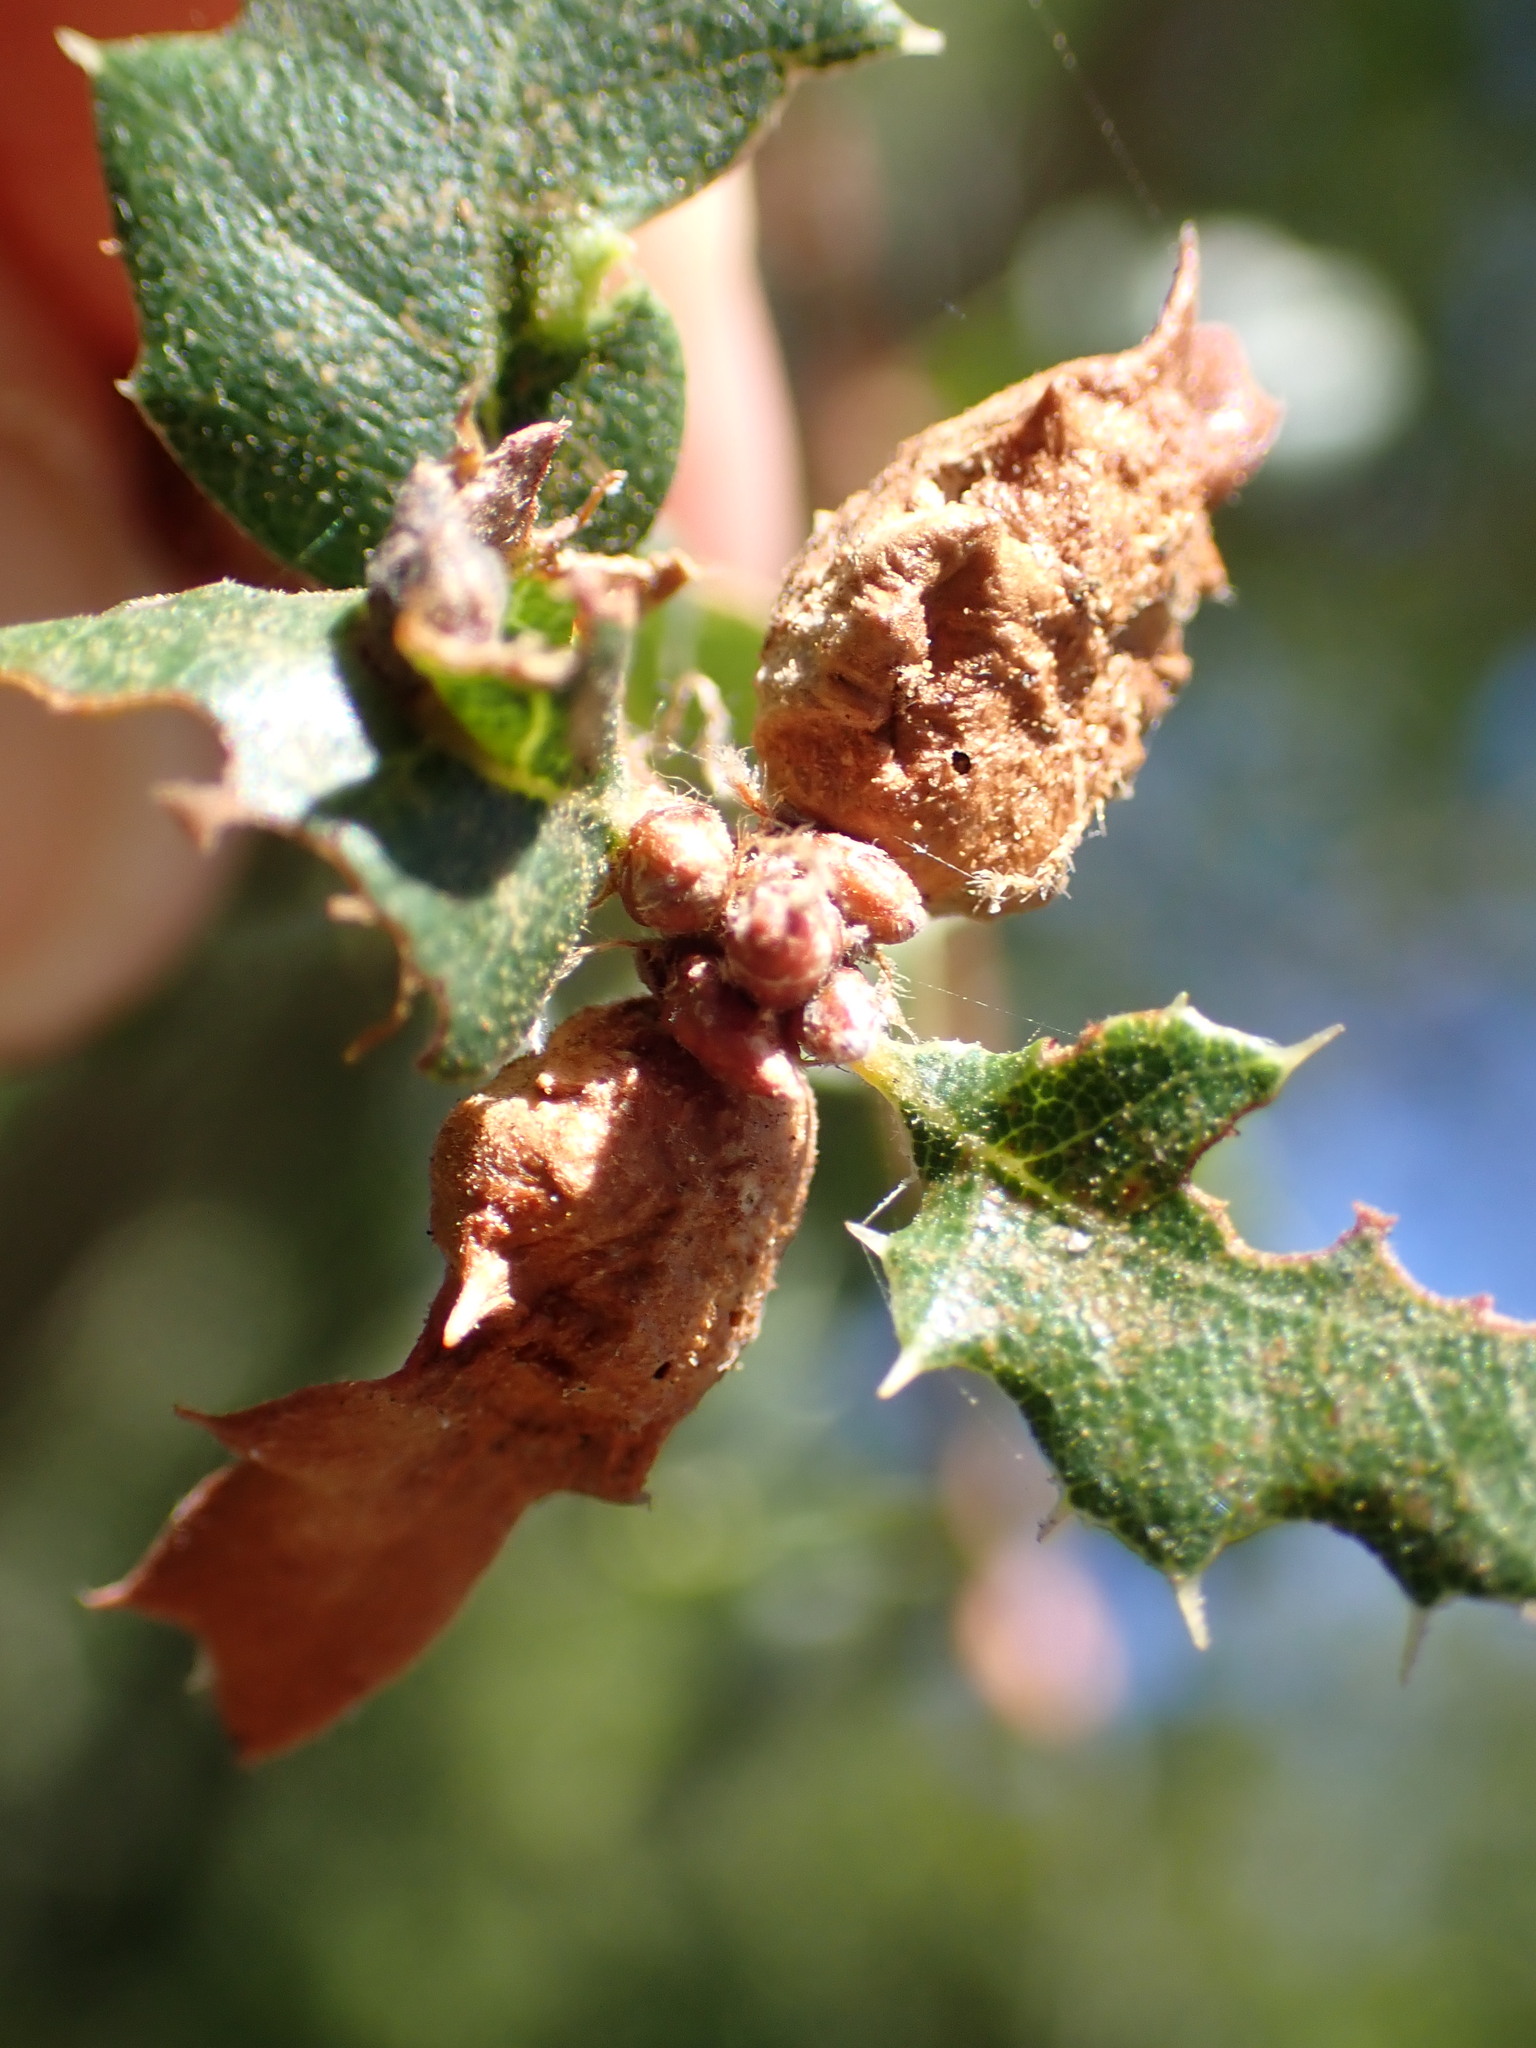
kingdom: Animalia
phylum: Arthropoda
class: Insecta
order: Hymenoptera
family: Cynipidae
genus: Neuroterus
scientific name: Neuroterus
